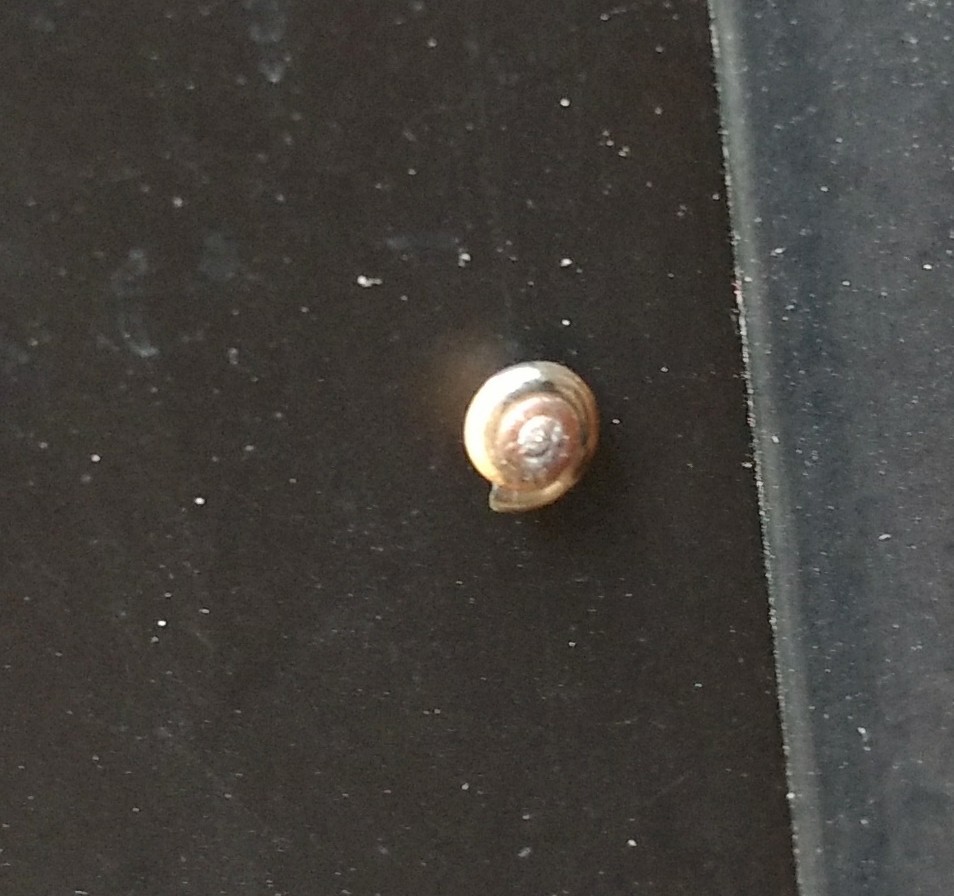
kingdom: Animalia
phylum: Mollusca
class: Gastropoda
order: Stylommatophora
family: Gastrodontidae
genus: Zonitoides
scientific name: Zonitoides arboreus
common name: Quick gloss
